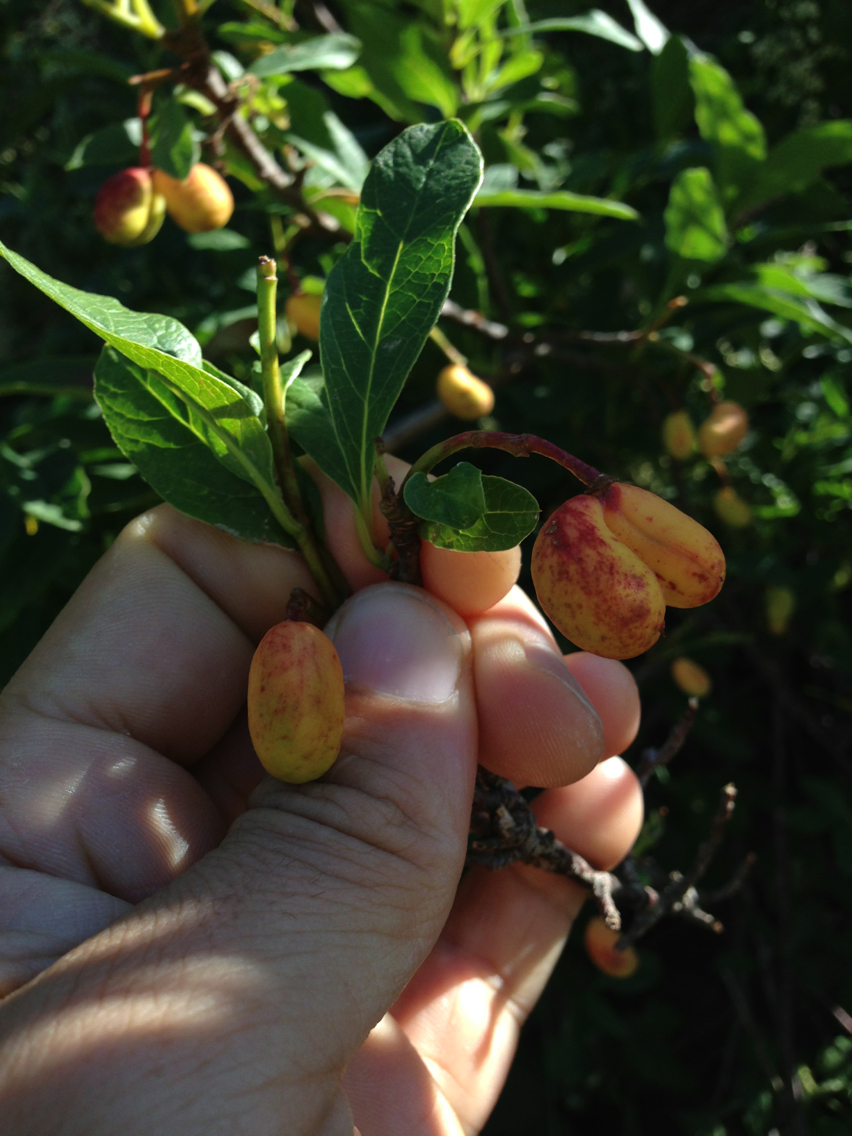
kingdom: Plantae
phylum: Tracheophyta
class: Magnoliopsida
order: Rosales
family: Rosaceae
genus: Oemleria
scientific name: Oemleria cerasiformis
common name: Osoberry
